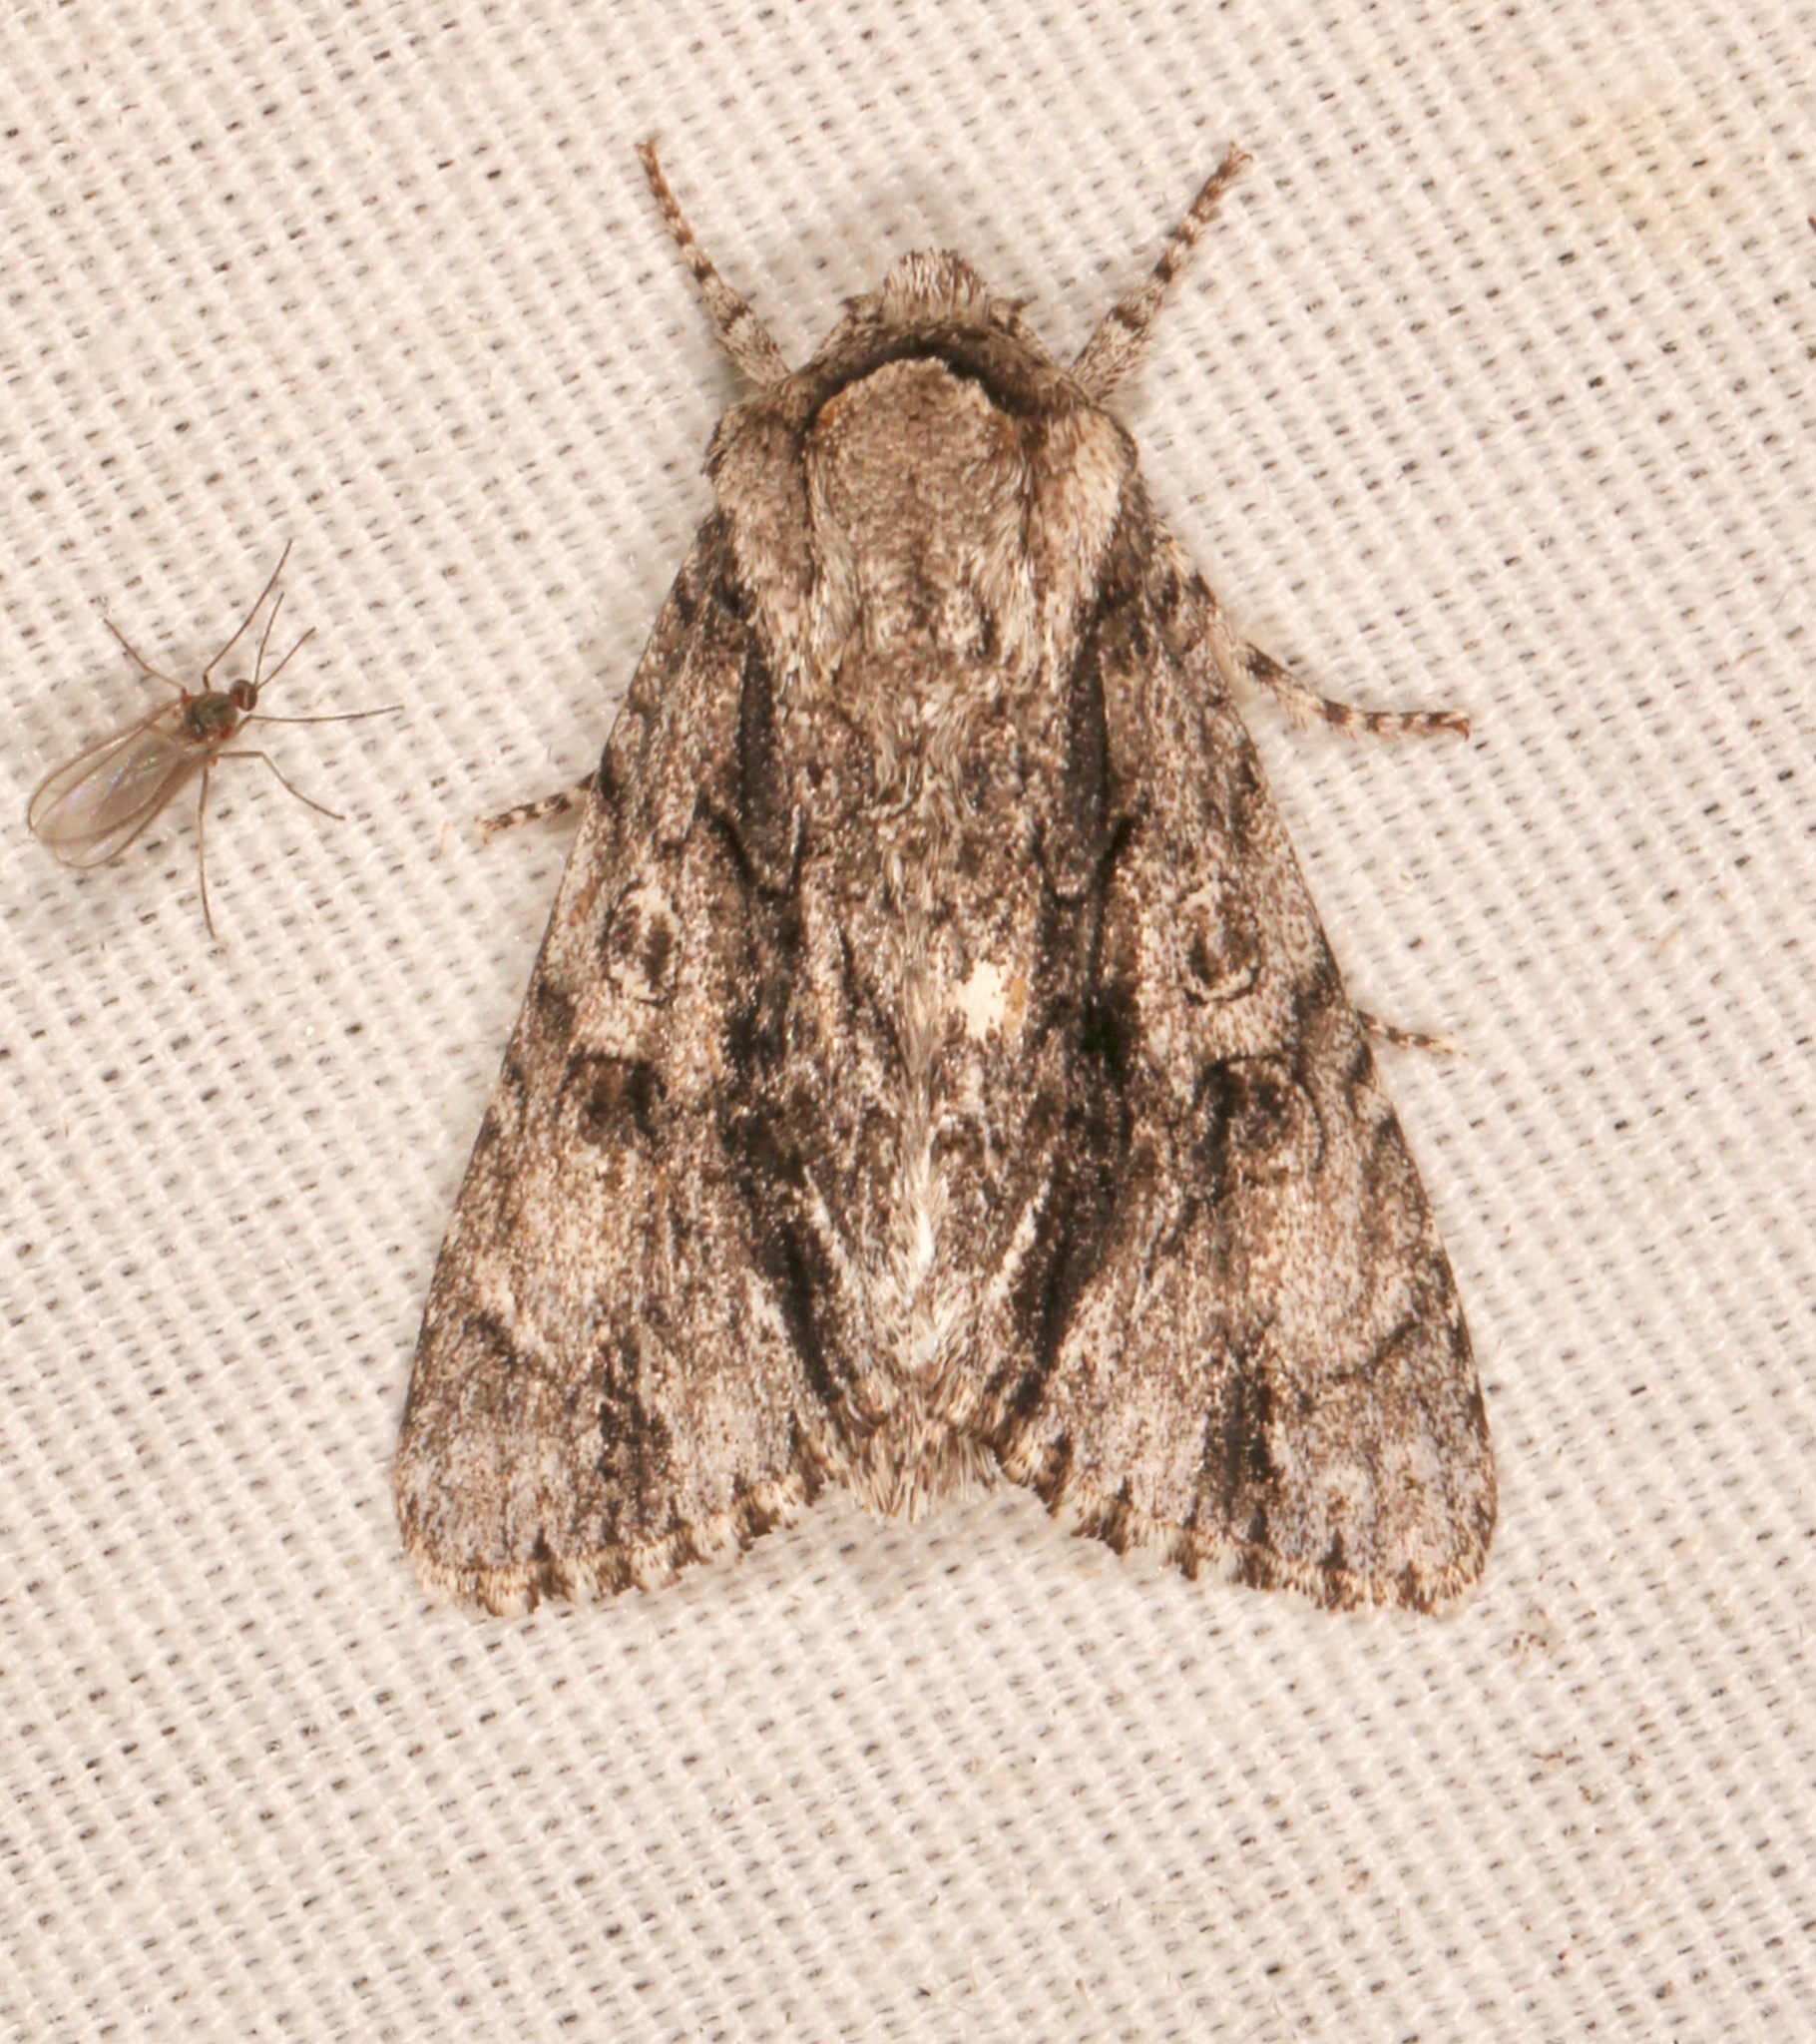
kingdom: Animalia
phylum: Arthropoda
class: Insecta
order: Lepidoptera
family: Noctuidae
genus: Acronicta
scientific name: Acronicta atristrigatus
